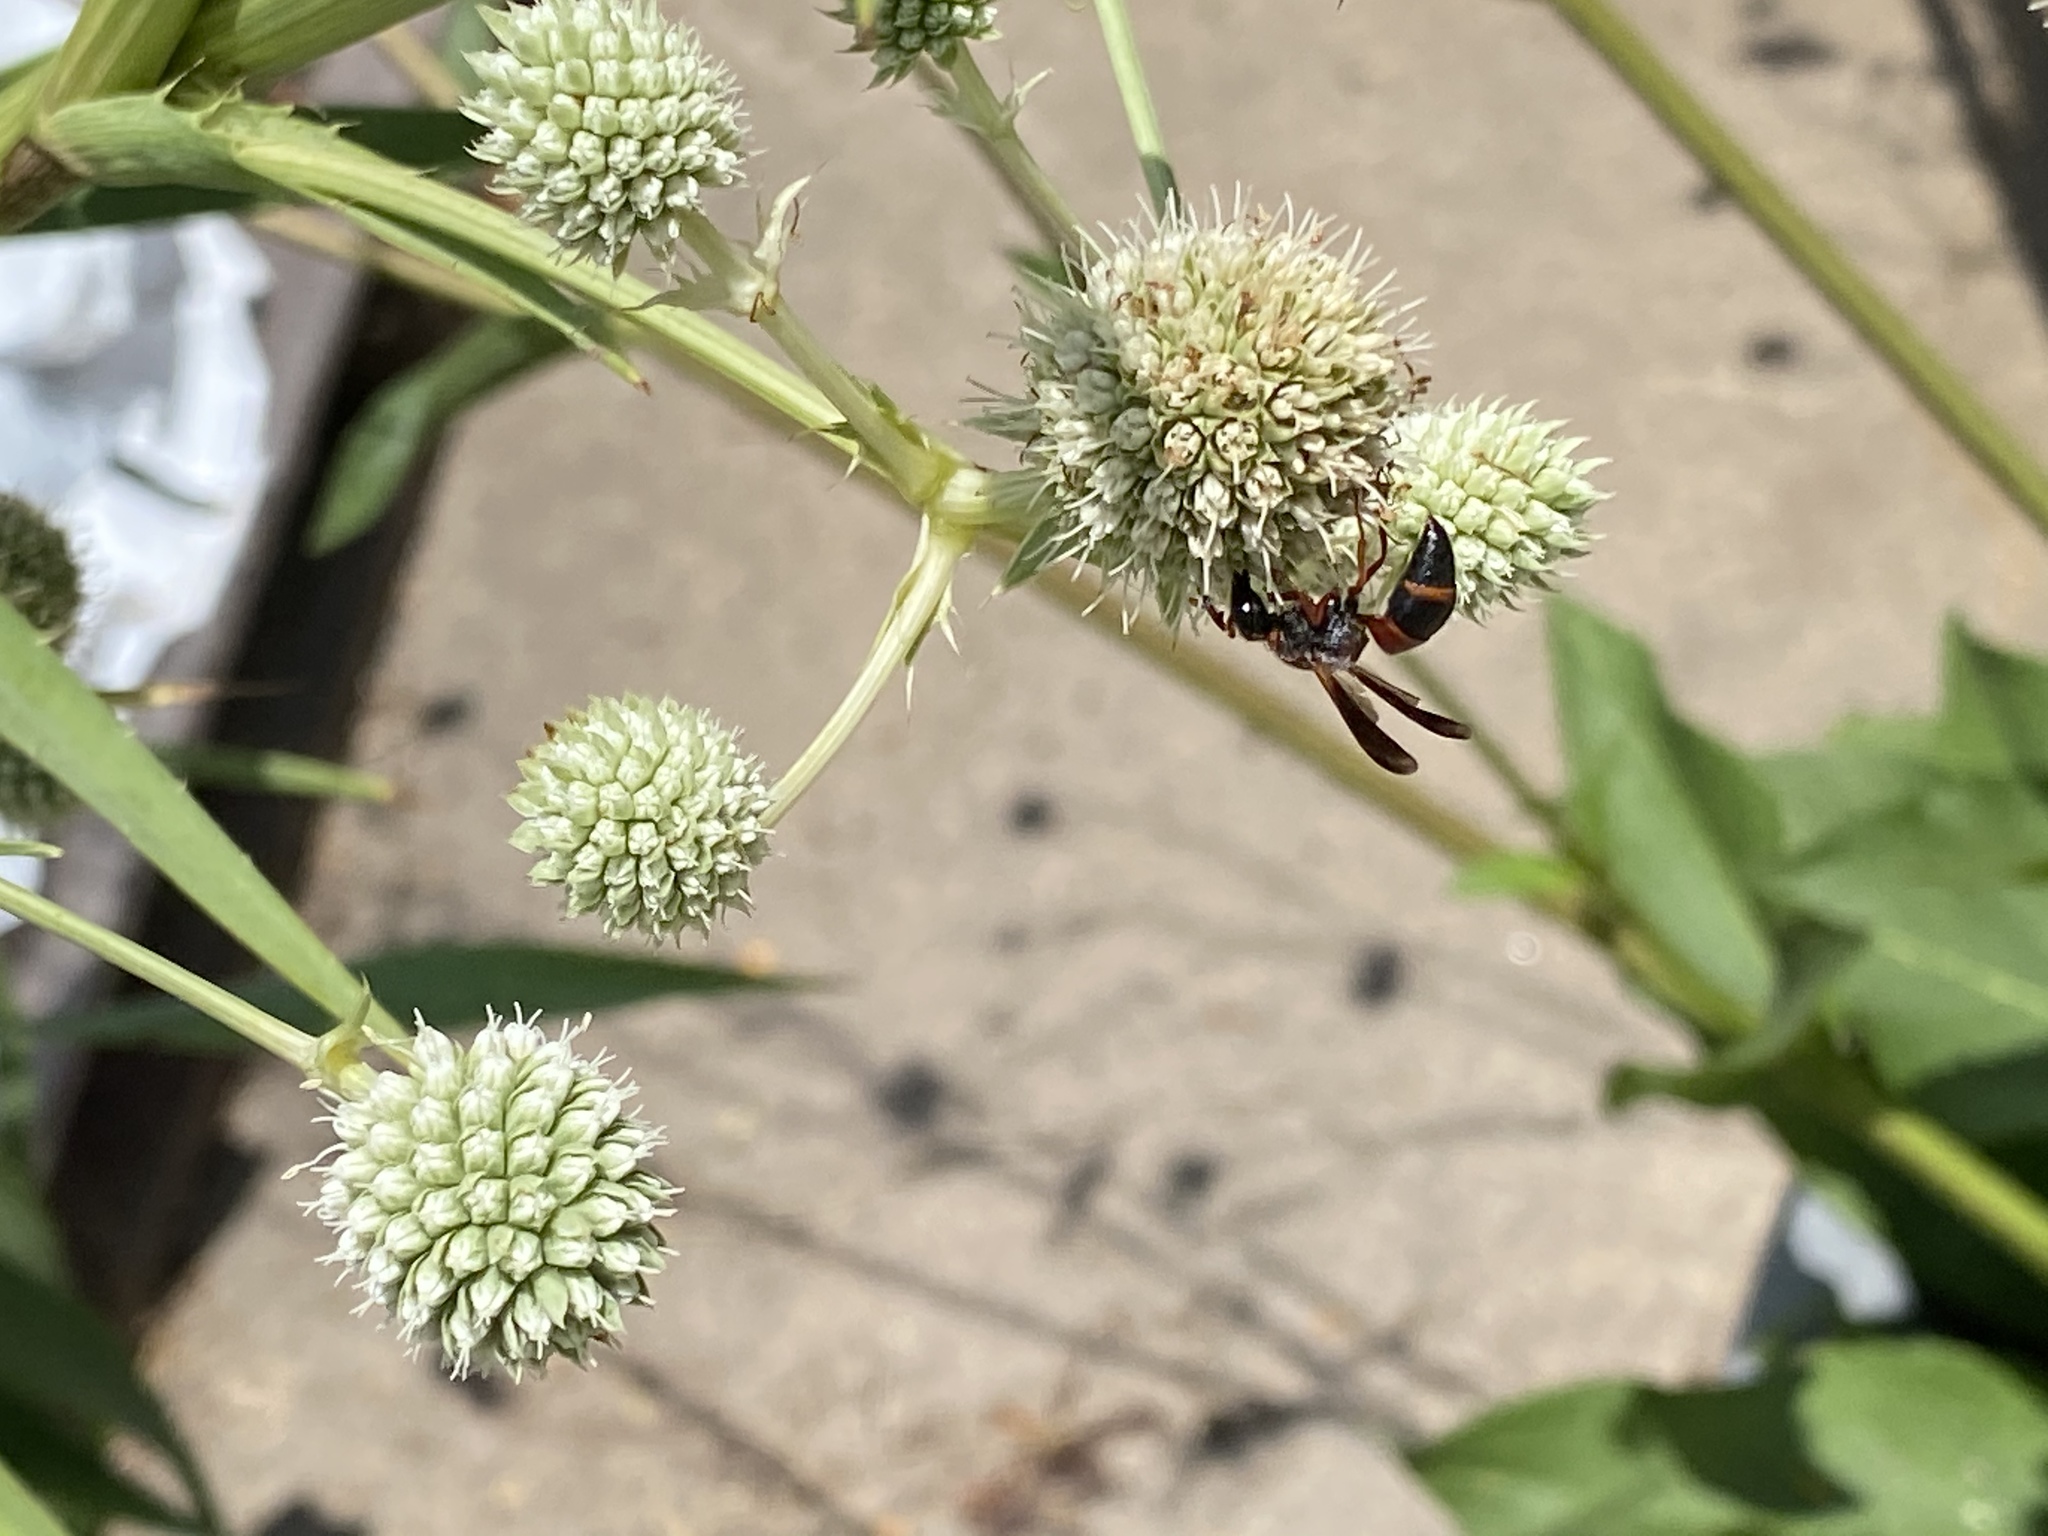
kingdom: Animalia
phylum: Arthropoda
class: Insecta
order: Hymenoptera
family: Eumenidae
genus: Pachodynerus
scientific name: Pachodynerus erynnis
